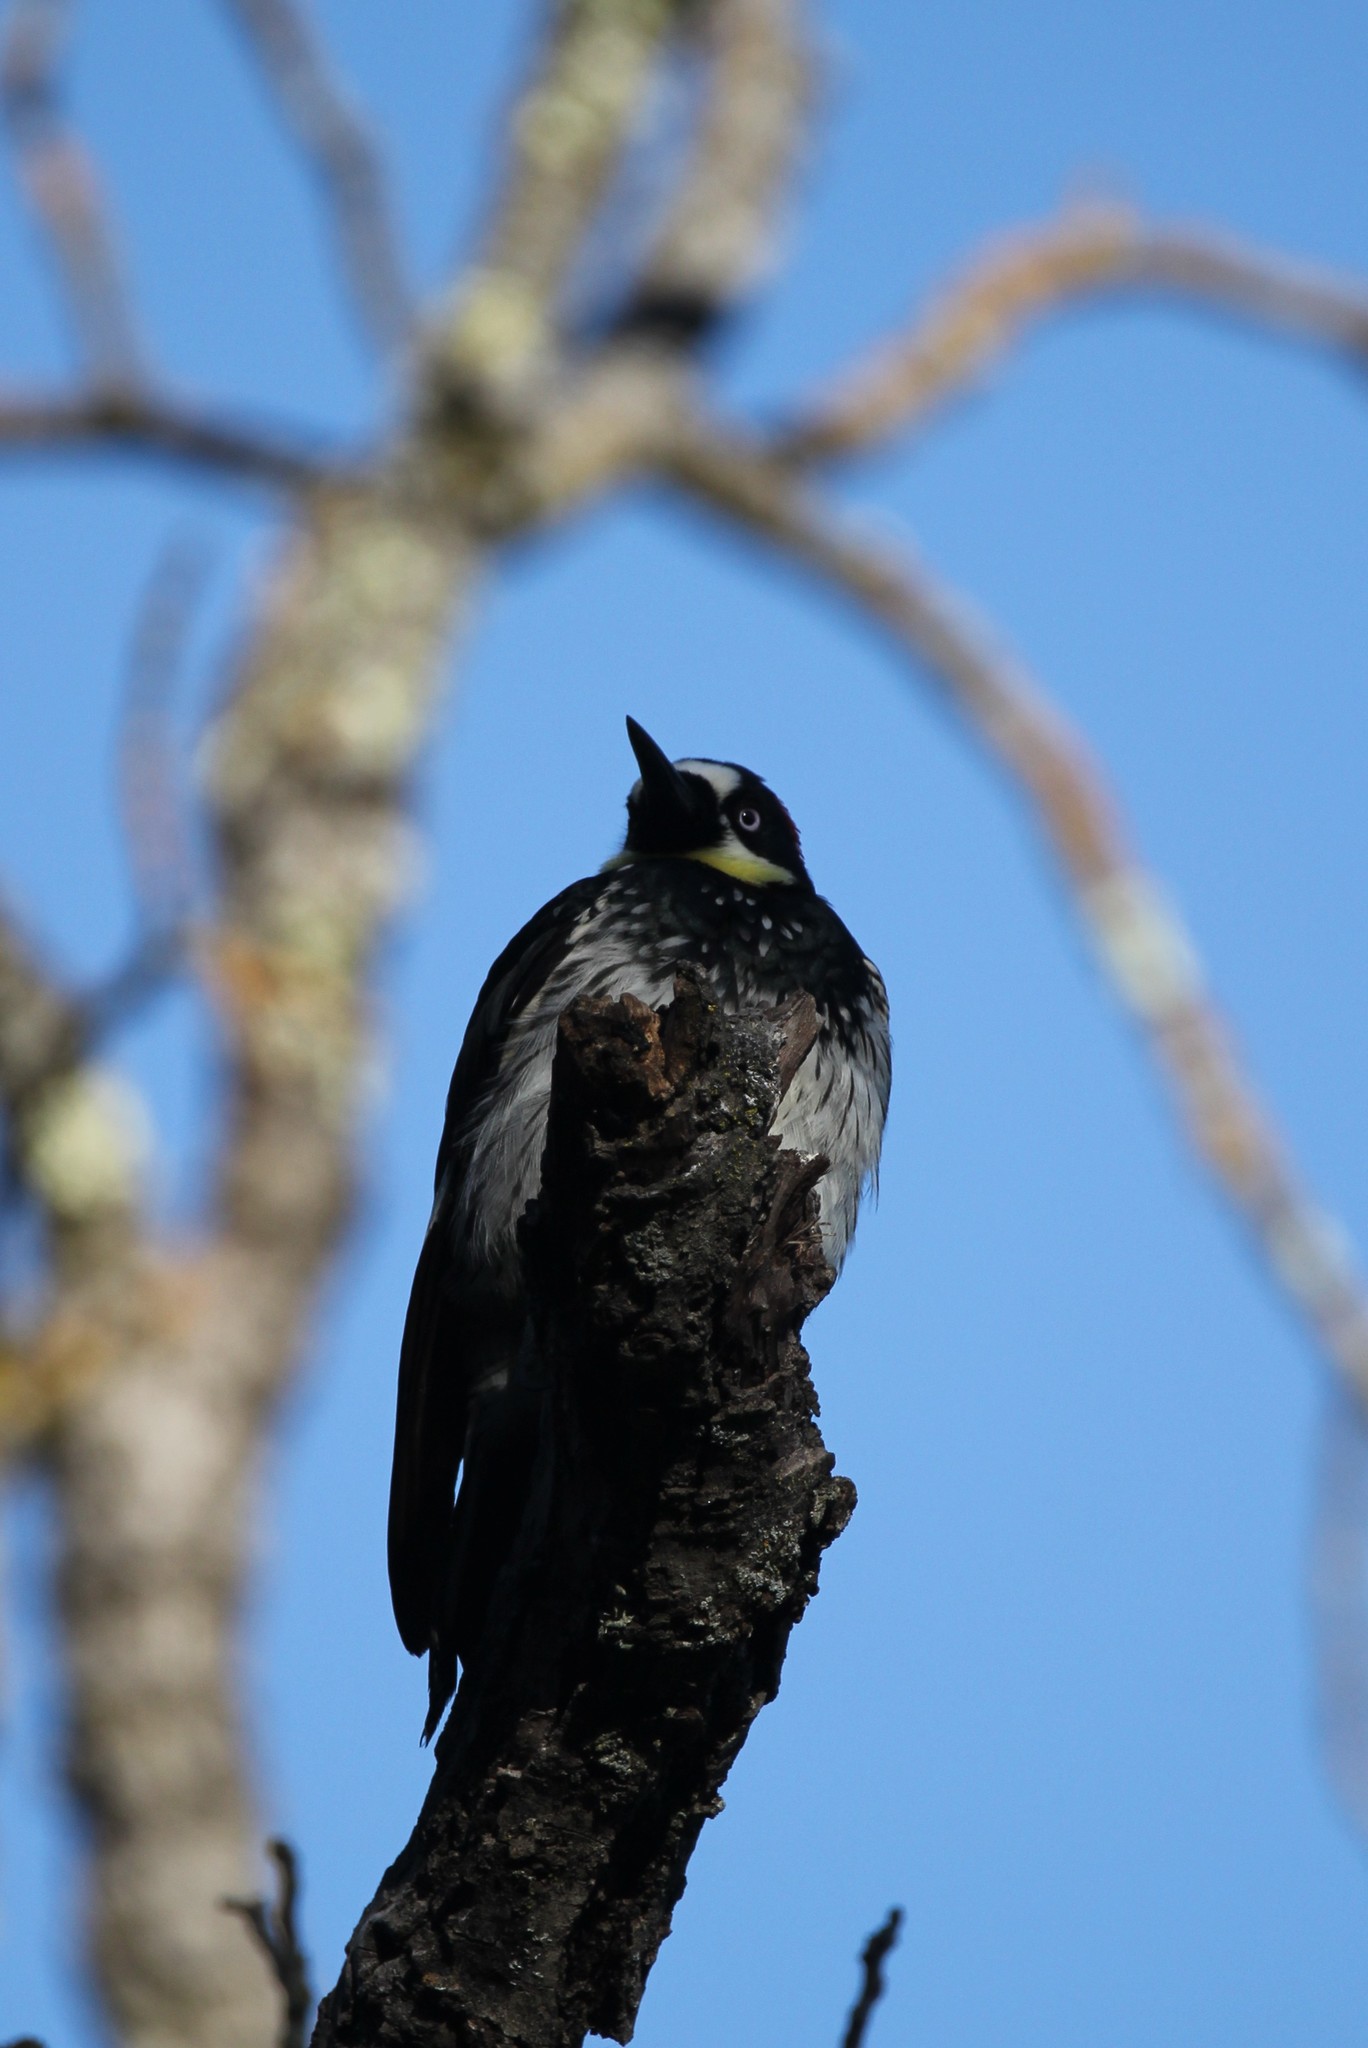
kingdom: Animalia
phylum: Chordata
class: Aves
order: Piciformes
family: Picidae
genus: Melanerpes
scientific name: Melanerpes formicivorus
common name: Acorn woodpecker
